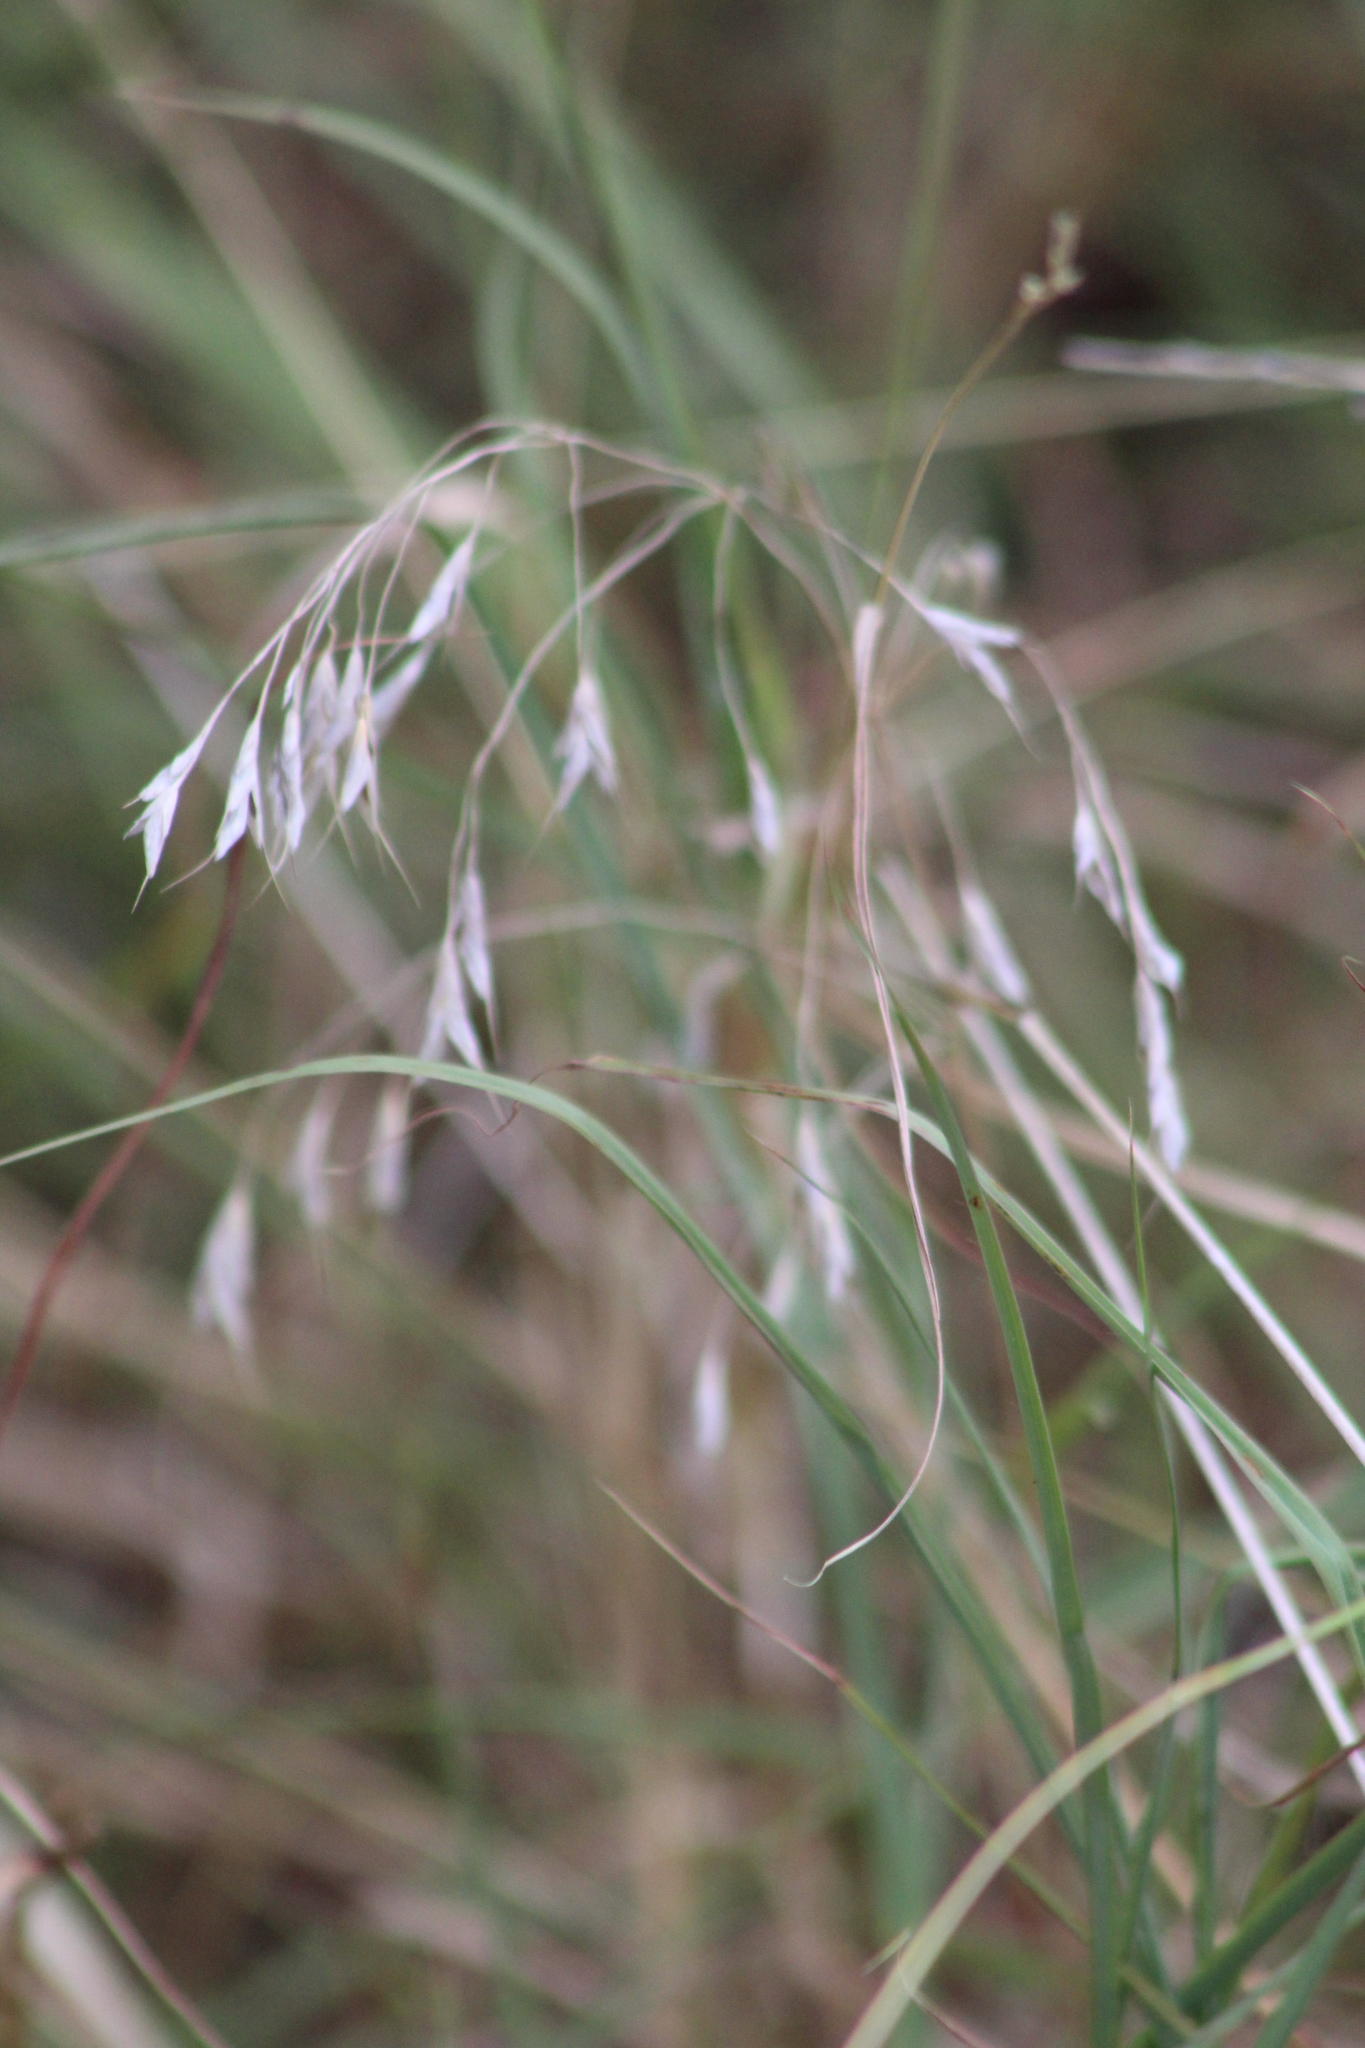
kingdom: Plantae
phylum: Tracheophyta
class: Liliopsida
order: Poales
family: Poaceae
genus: Bromus
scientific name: Bromus japonicus
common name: Japanese brome
